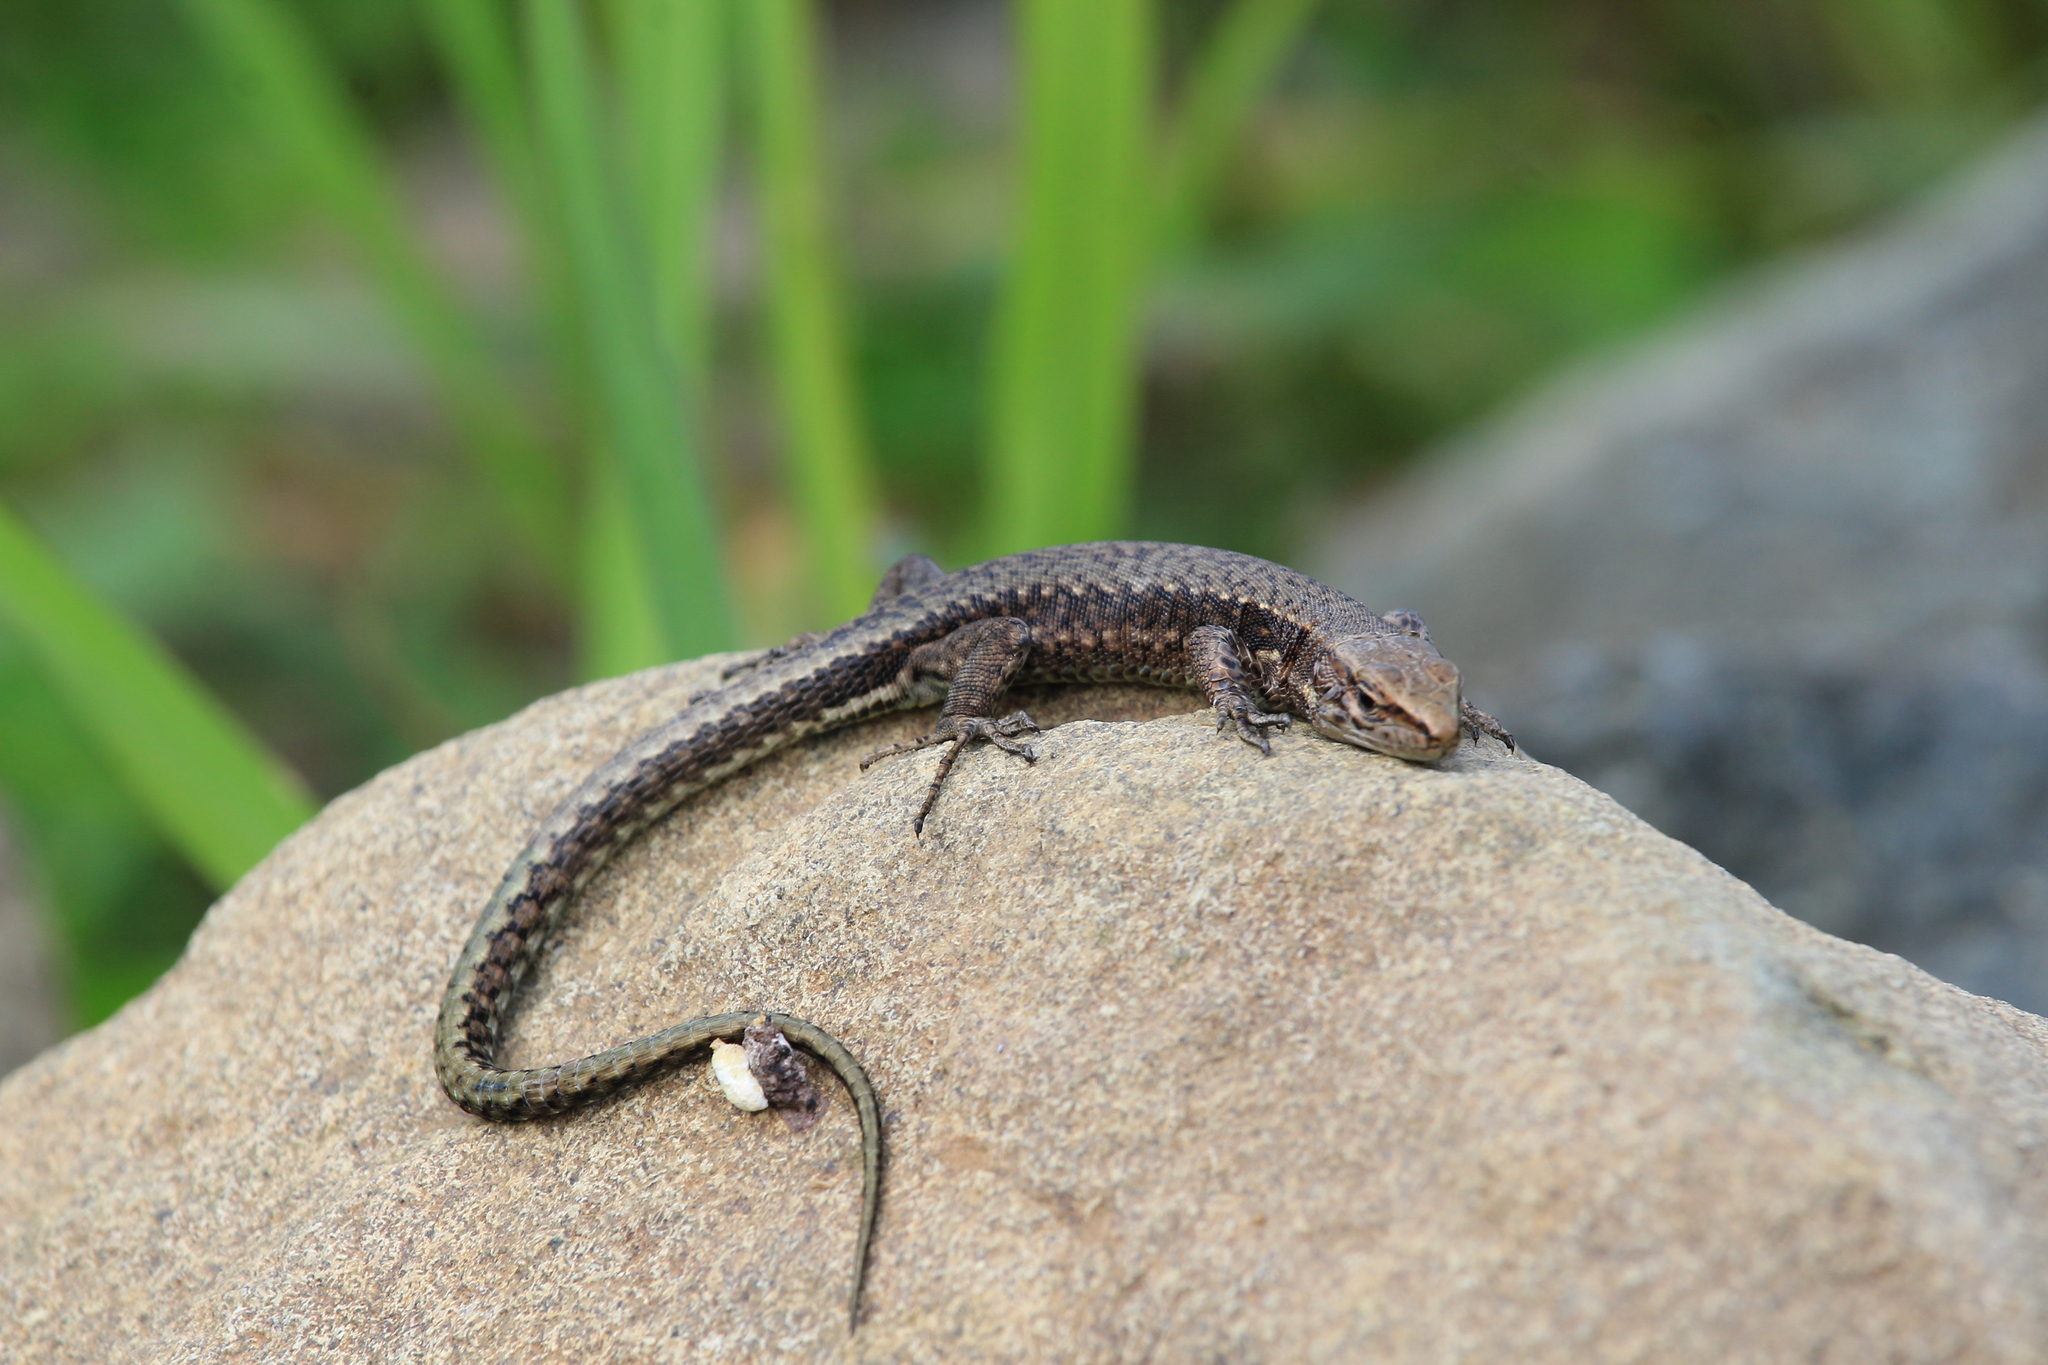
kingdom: Animalia
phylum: Chordata
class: Squamata
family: Lacertidae
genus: Darevskia
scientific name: Darevskia derjugini
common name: Derjugin's lizard
